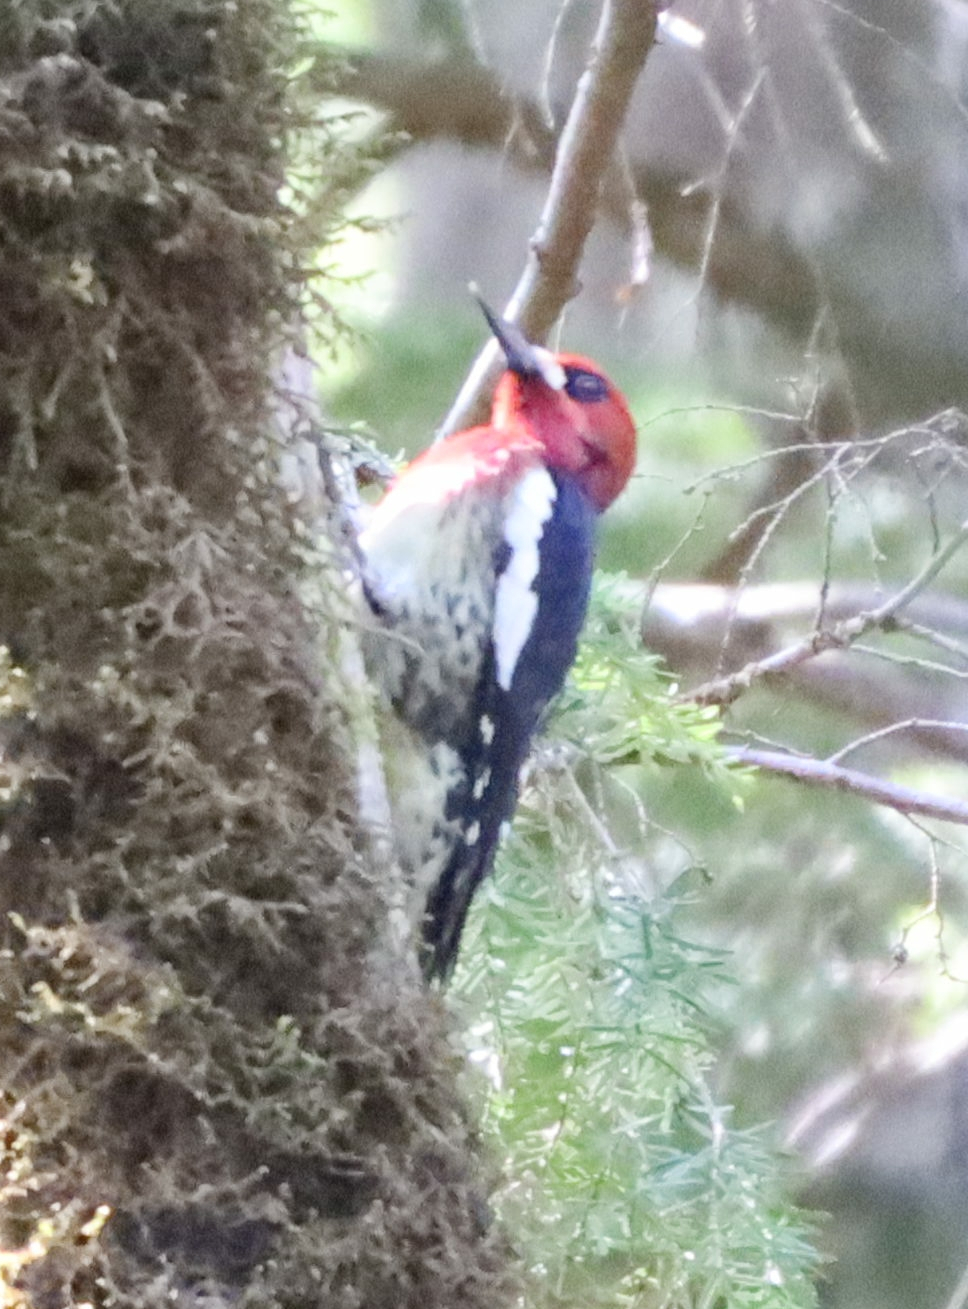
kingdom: Animalia
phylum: Chordata
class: Aves
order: Piciformes
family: Picidae
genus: Sphyrapicus
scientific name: Sphyrapicus ruber
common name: Red-breasted sapsucker
